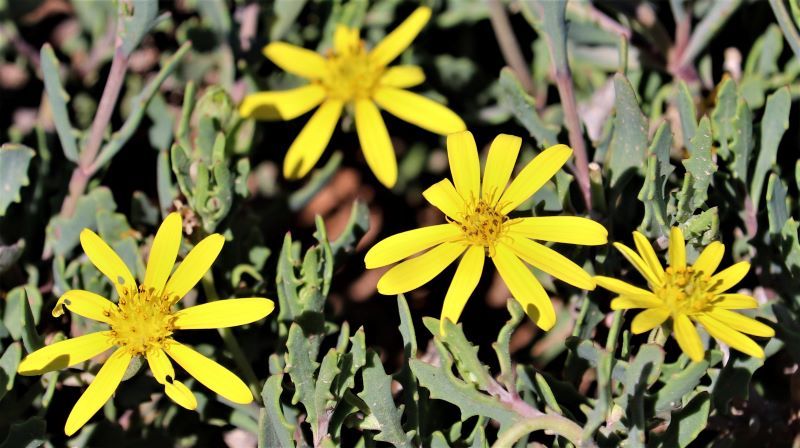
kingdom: Plantae
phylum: Tracheophyta
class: Magnoliopsida
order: Asterales
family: Asteraceae
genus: Osteospermum
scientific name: Osteospermum sinuatum
